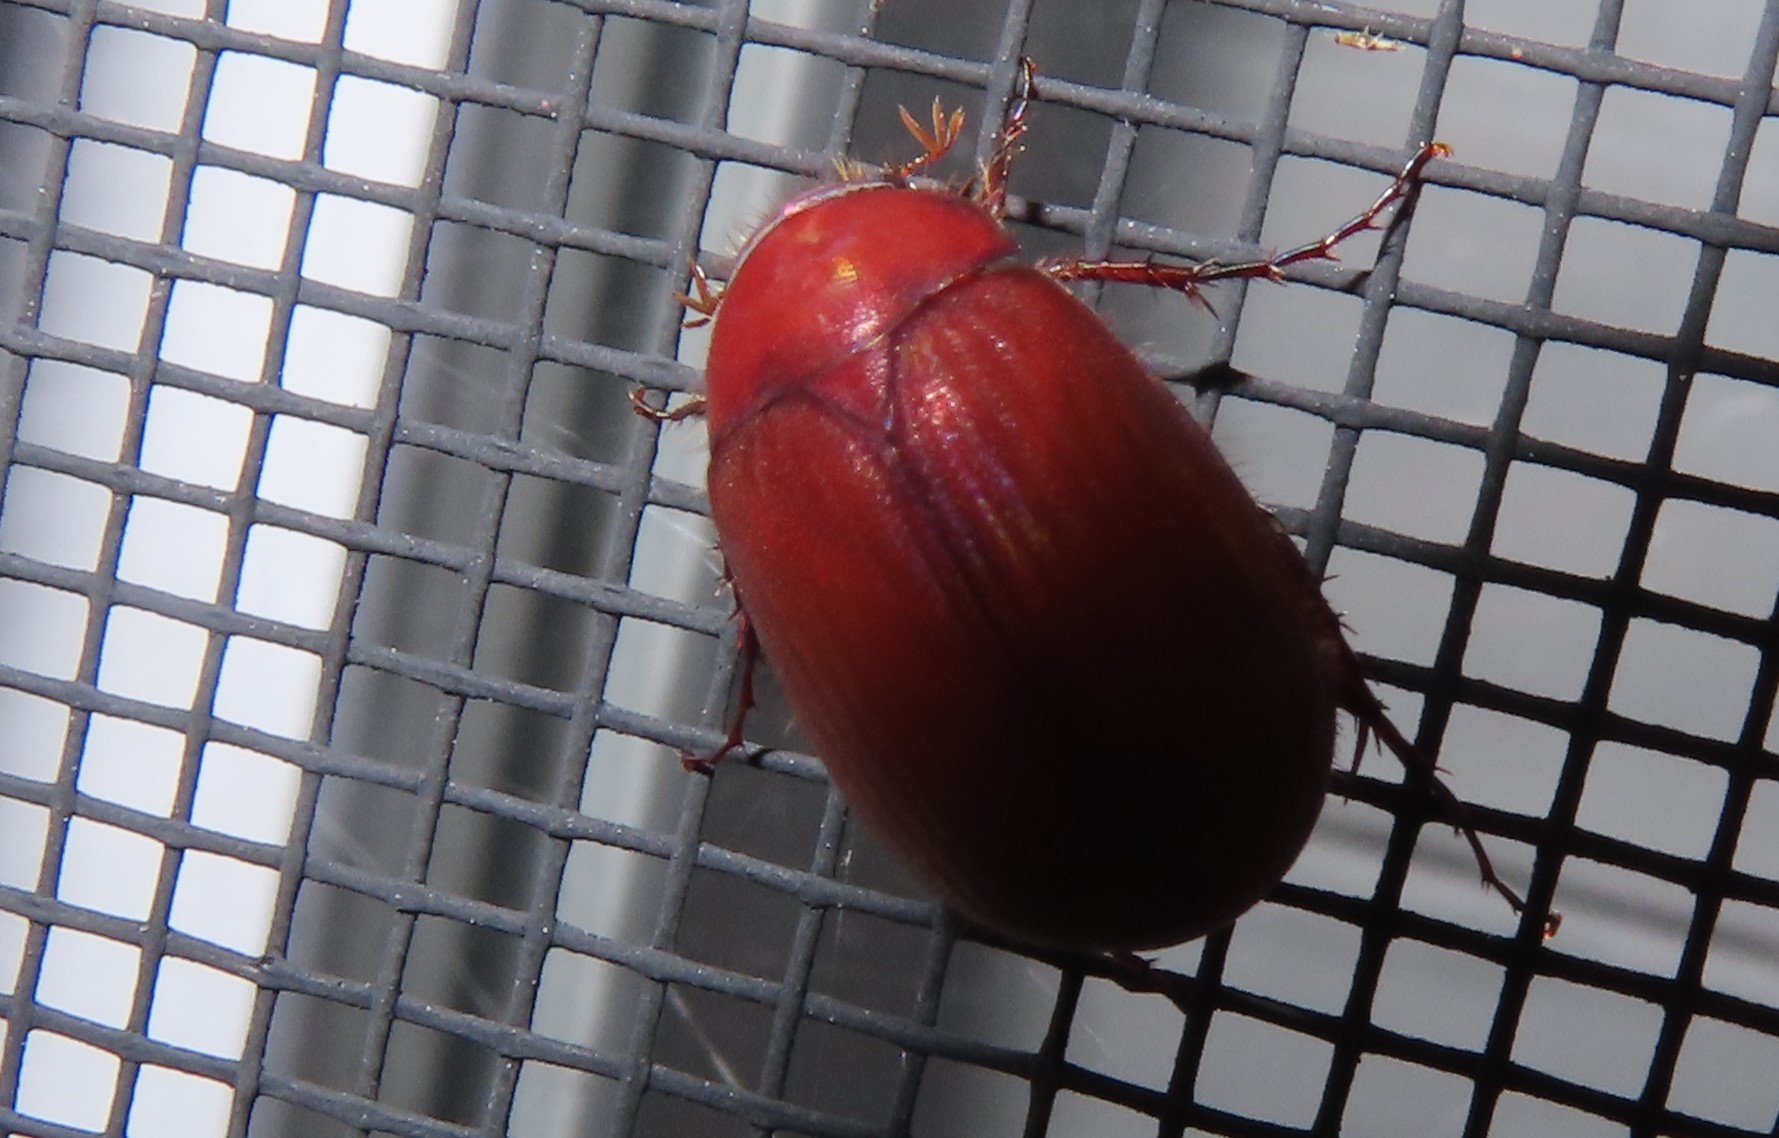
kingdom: Animalia
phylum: Arthropoda
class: Insecta
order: Coleoptera
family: Scarabaeidae
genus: Maladera
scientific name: Maladera formosae
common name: Asiatic garden beetle
